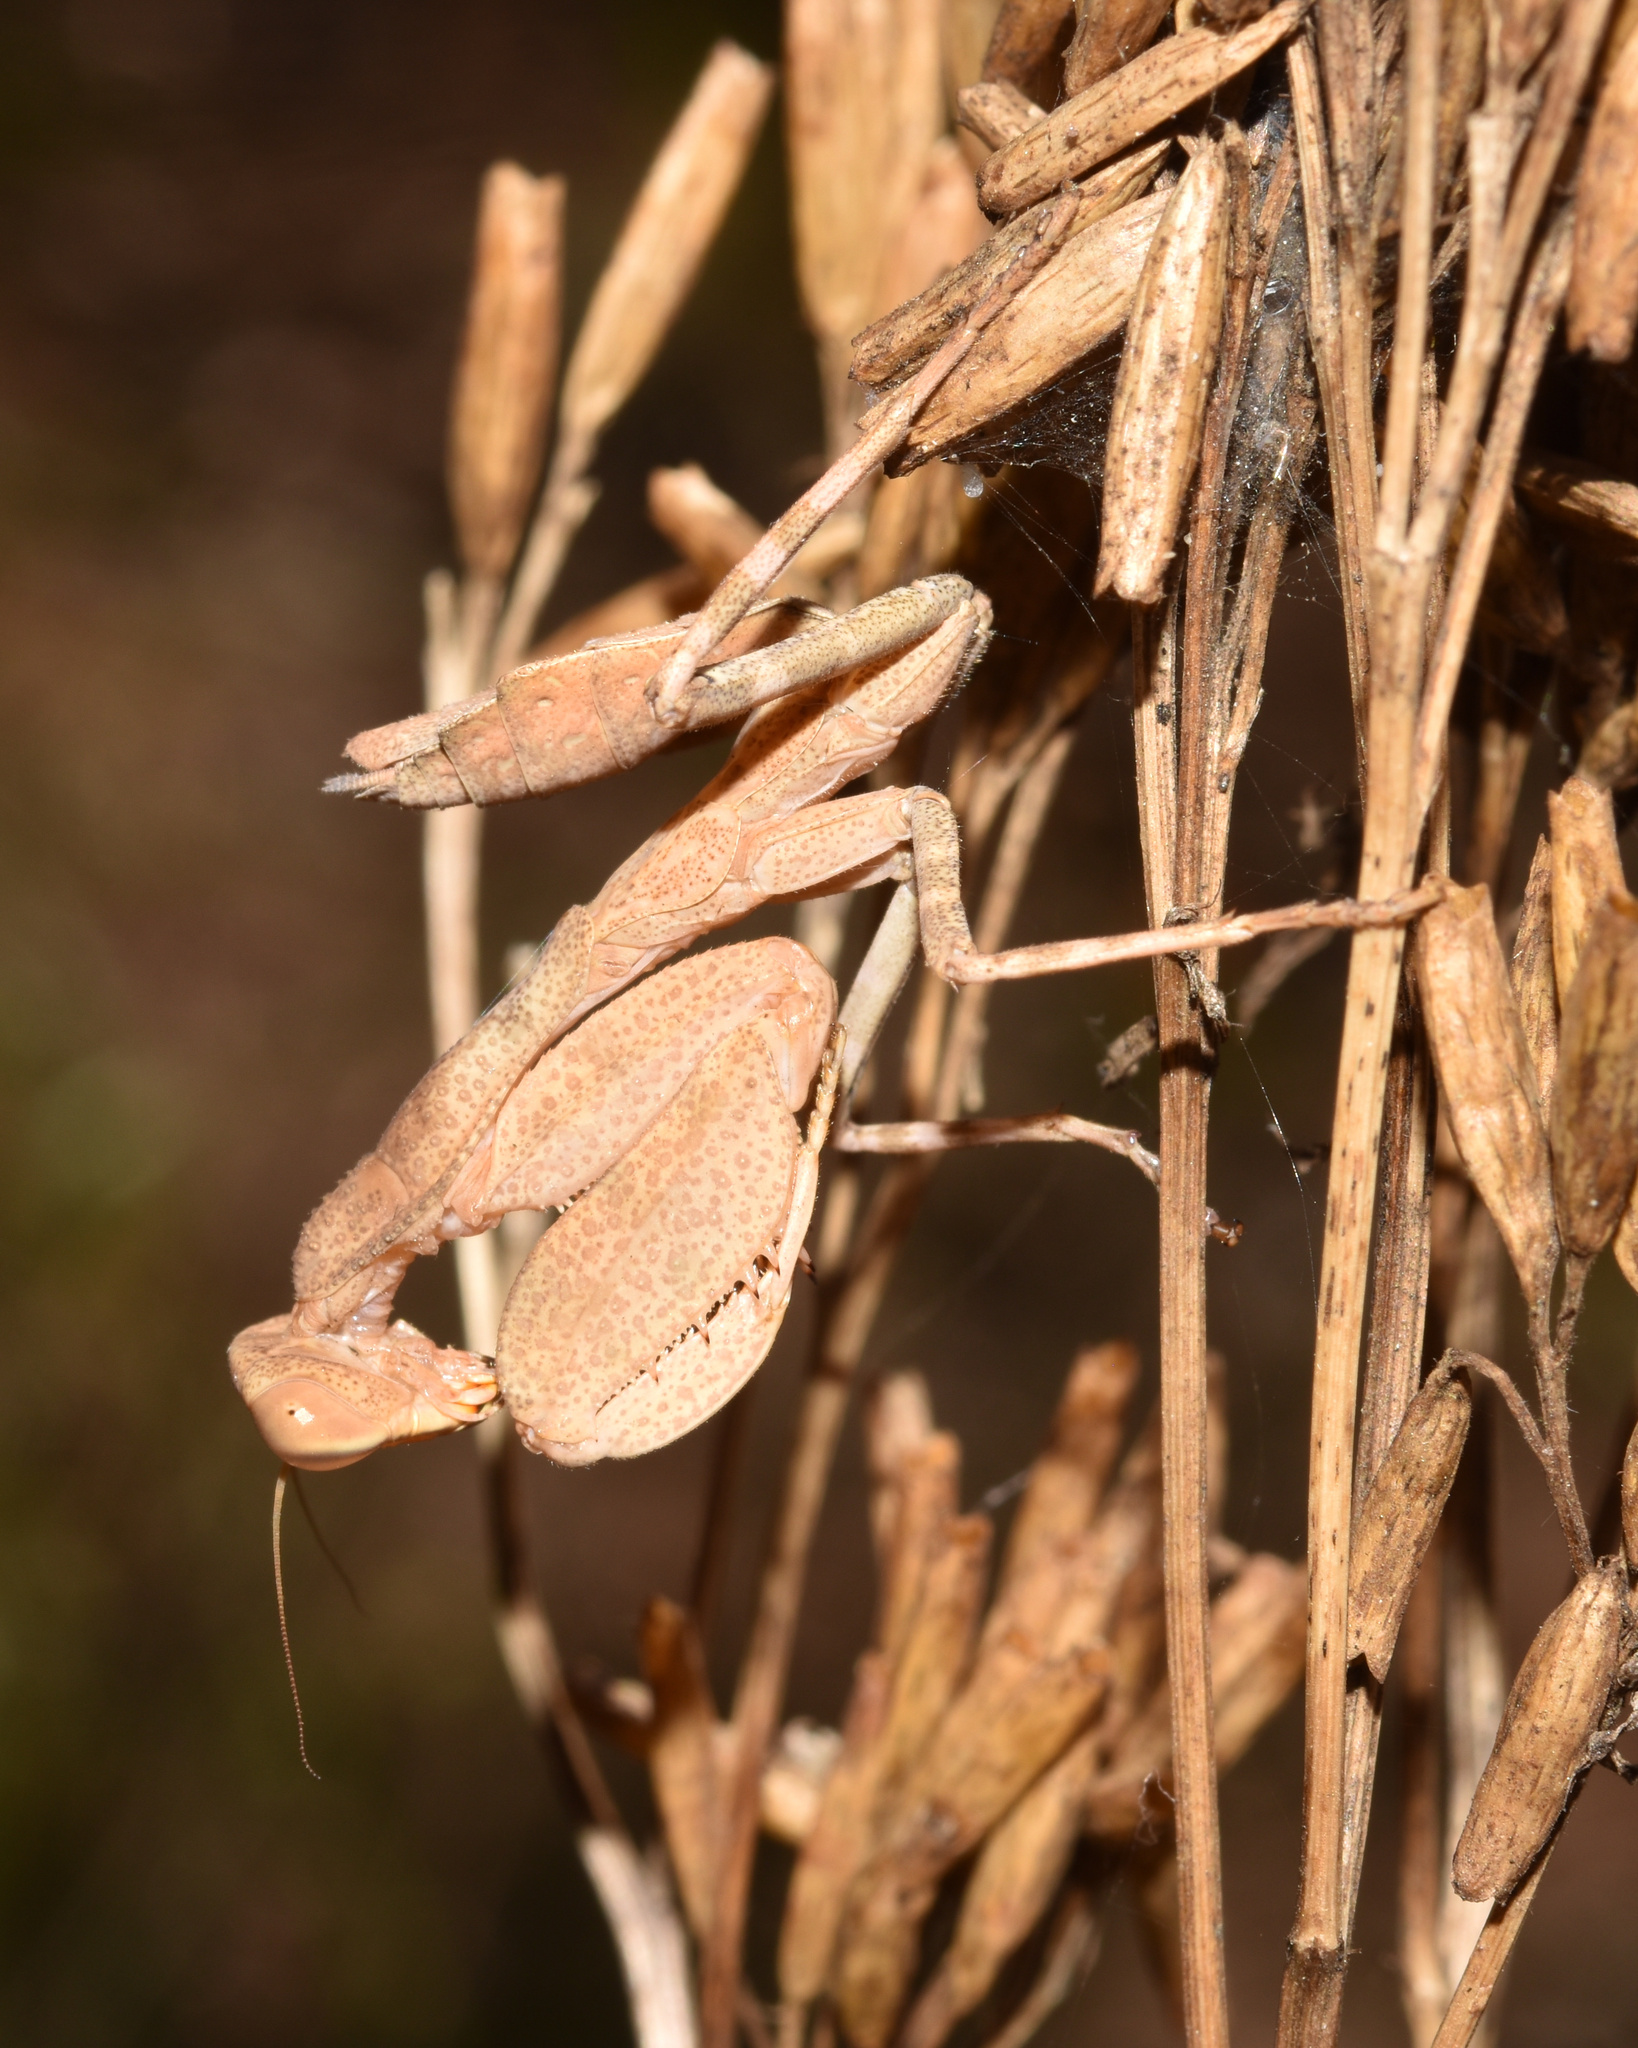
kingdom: Animalia
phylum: Arthropoda
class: Insecta
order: Mantodea
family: Miomantidae
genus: Cilnia
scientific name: Cilnia humeralis
